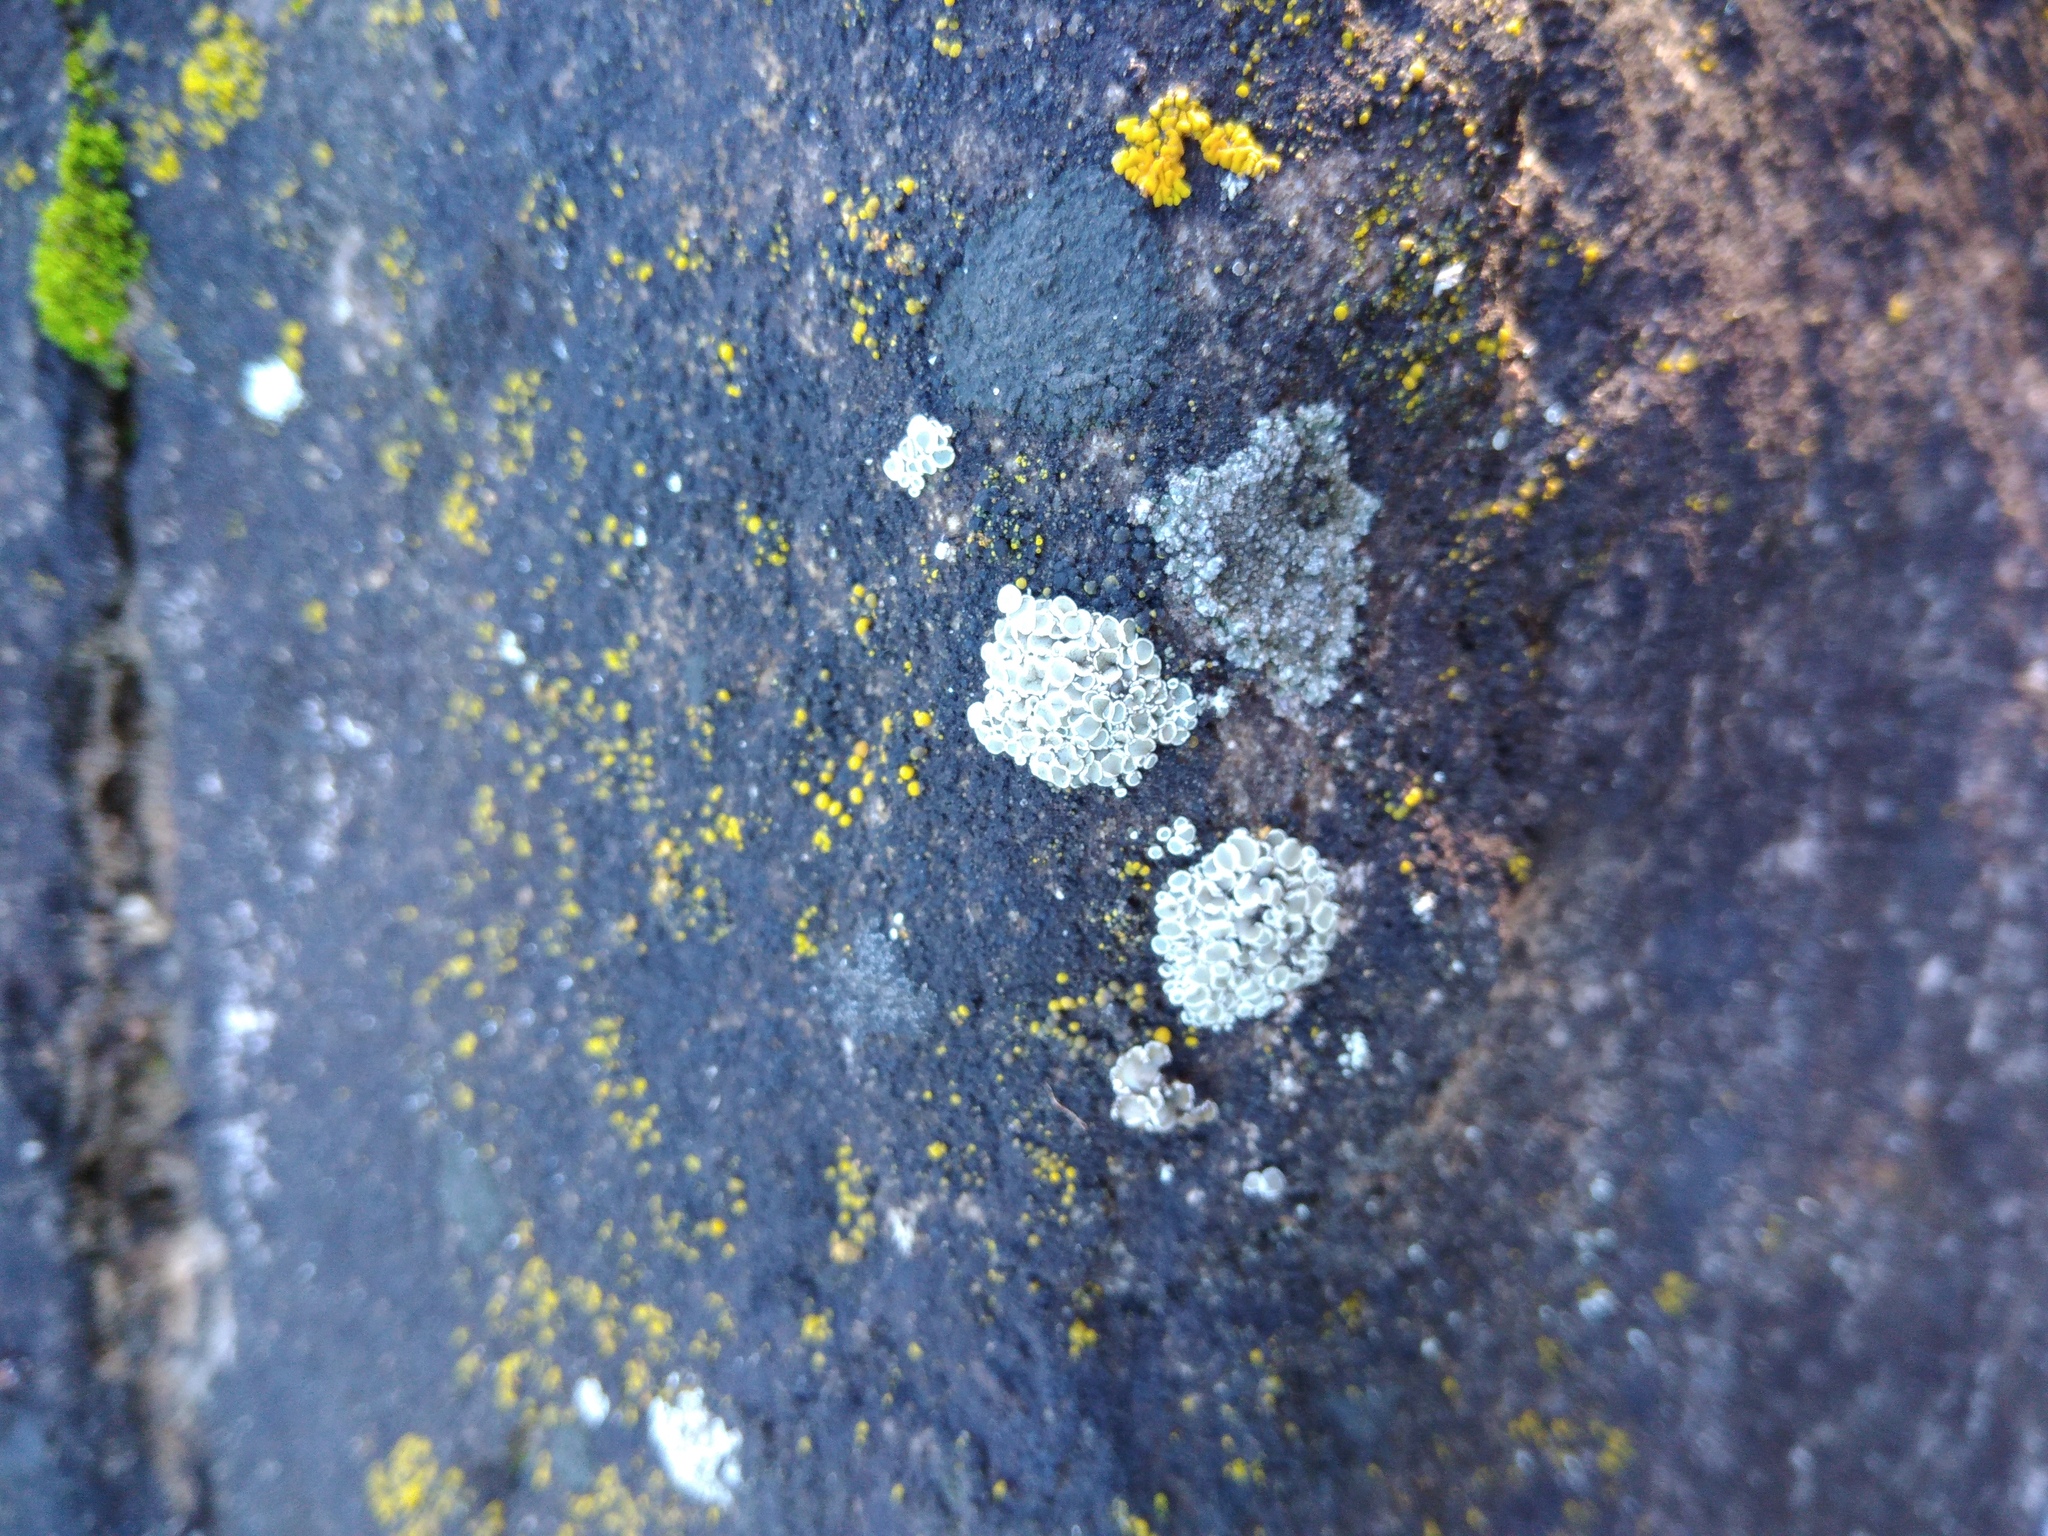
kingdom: Fungi
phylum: Ascomycota
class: Lecanoromycetes
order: Lecanorales
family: Lecanoraceae
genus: Polyozosia
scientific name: Polyozosia albescens
